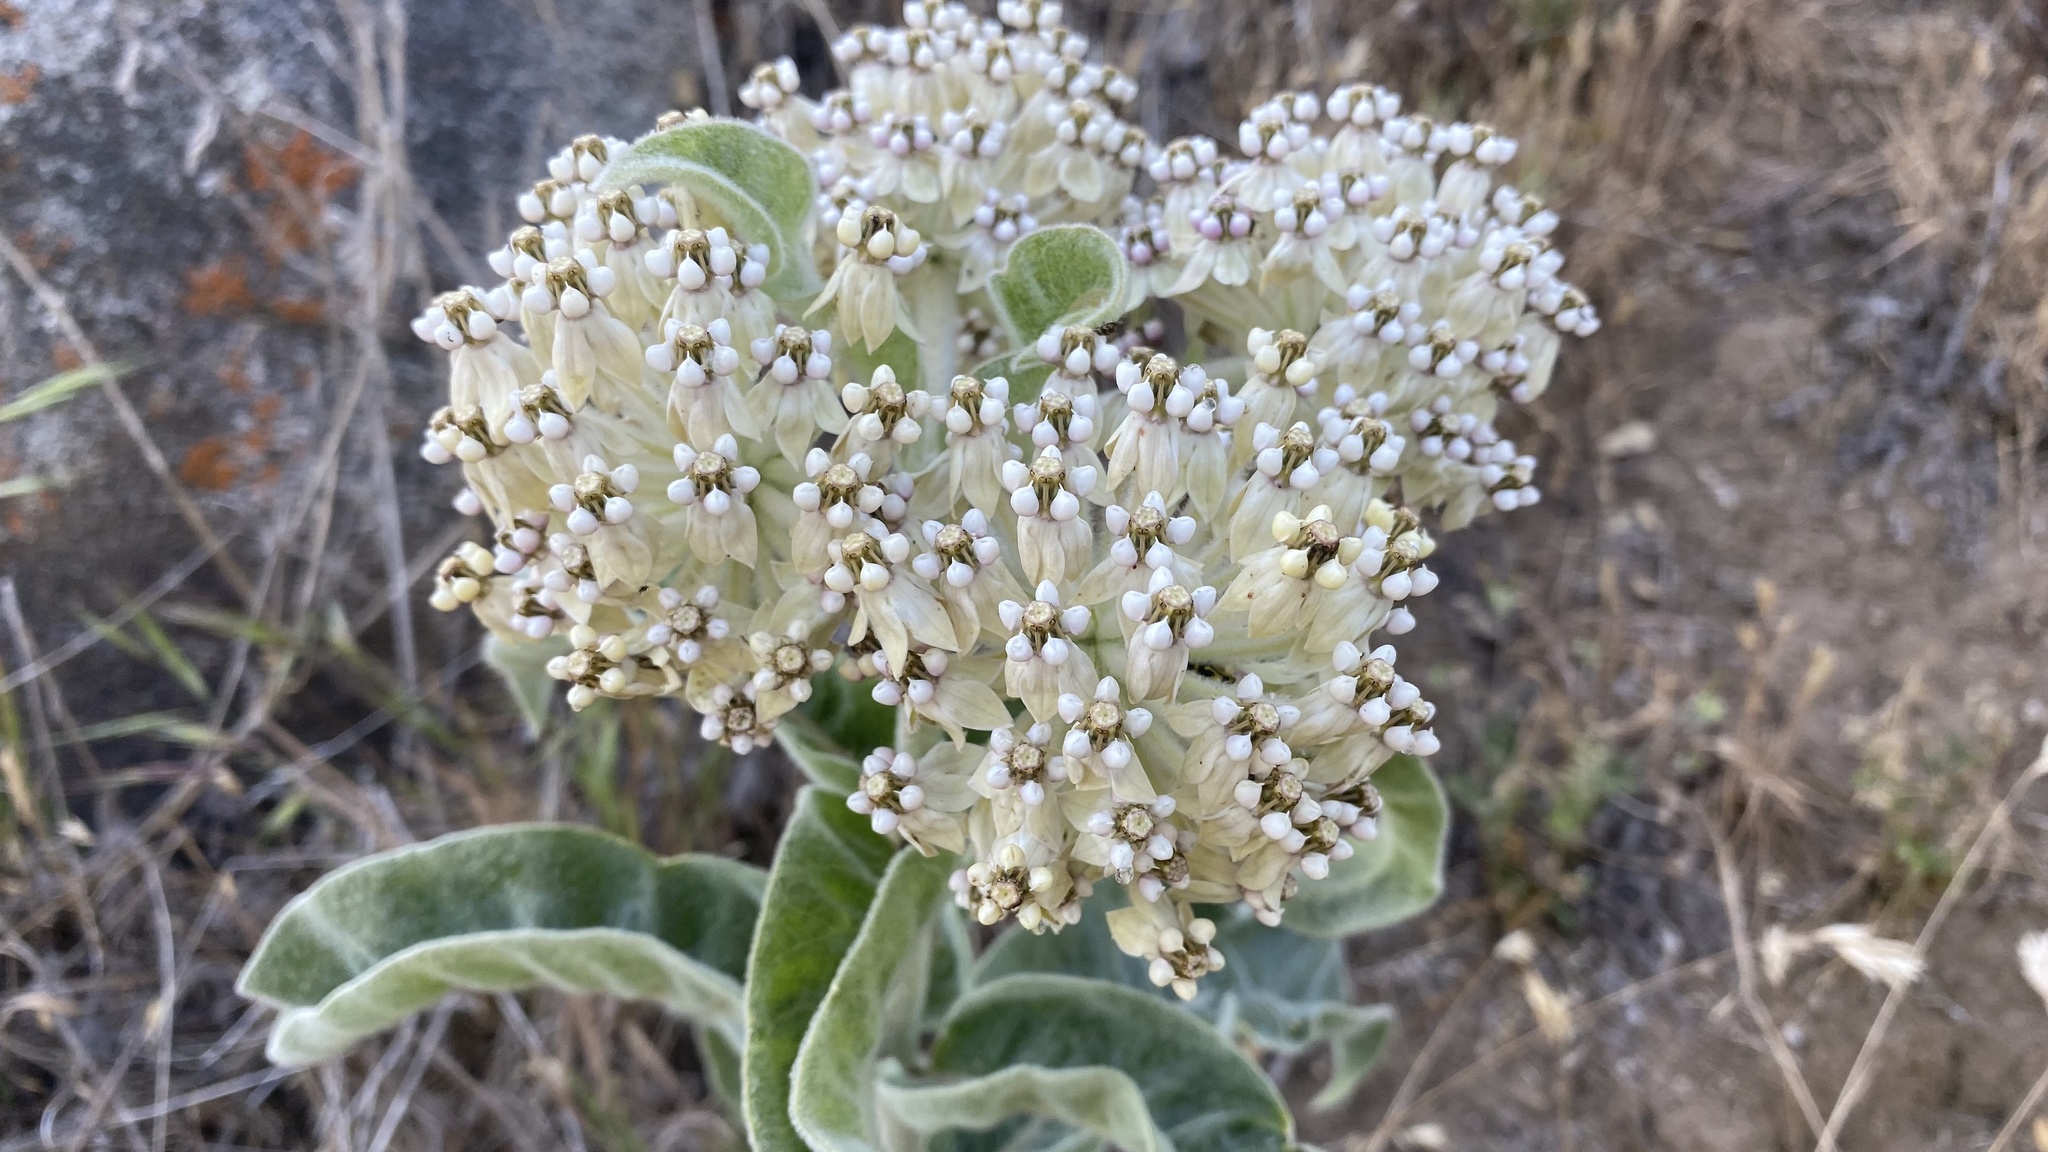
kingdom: Plantae
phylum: Tracheophyta
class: Magnoliopsida
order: Gentianales
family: Apocynaceae
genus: Asclepias
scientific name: Asclepias eriocarpa
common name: Indian milkweed
